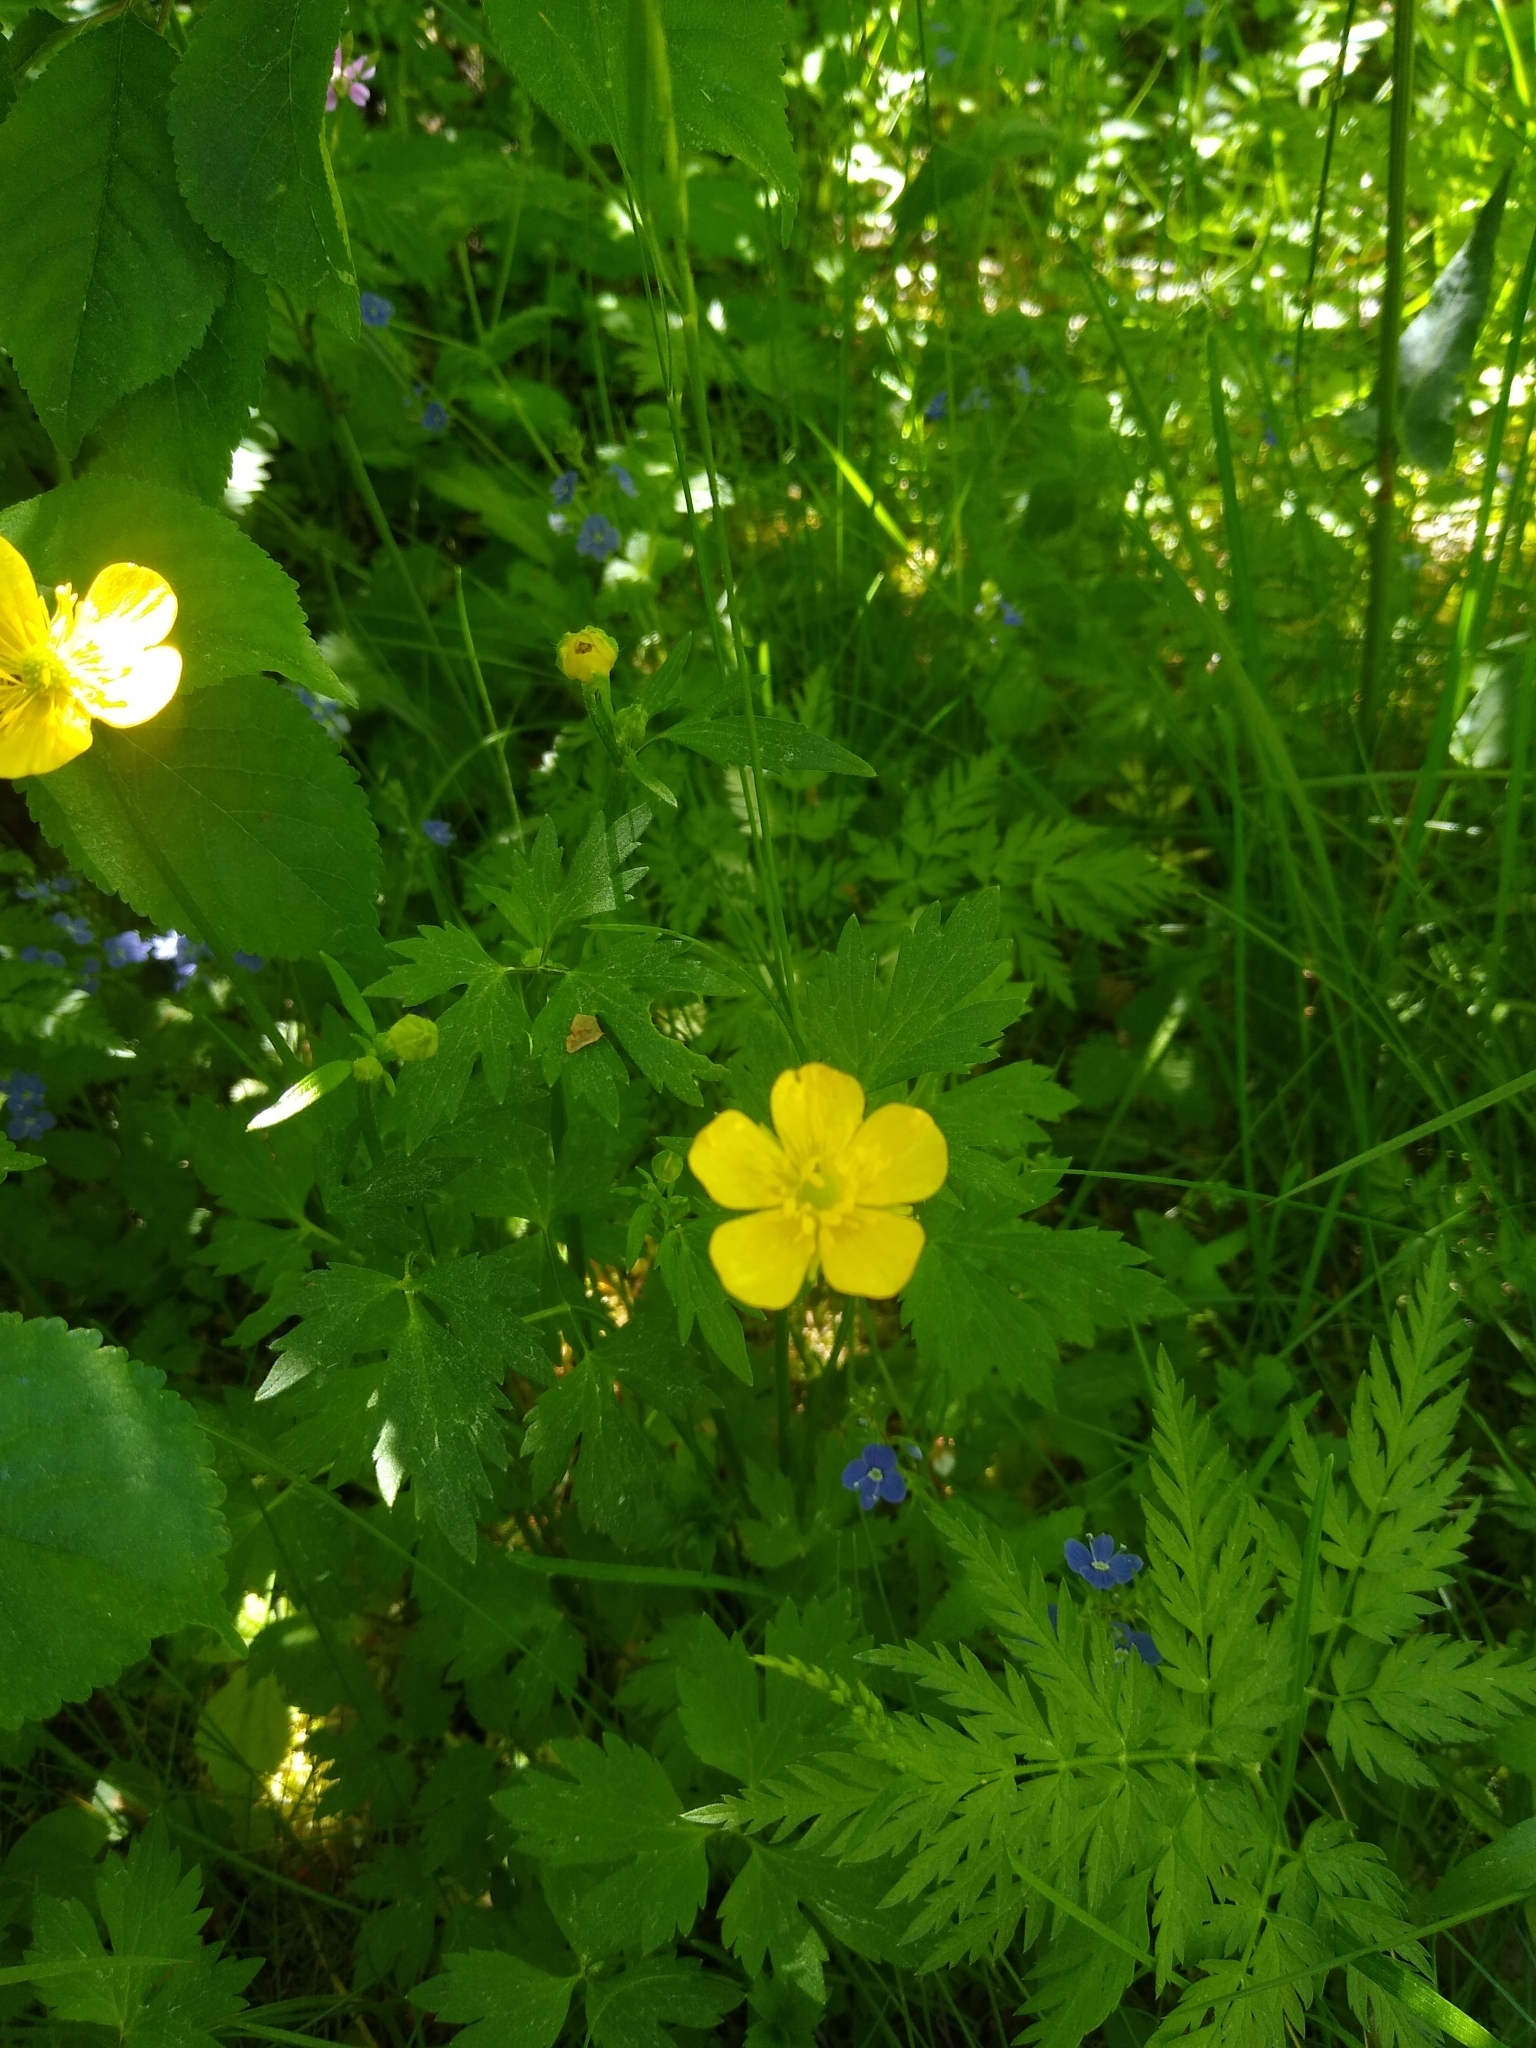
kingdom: Plantae
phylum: Tracheophyta
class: Magnoliopsida
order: Ranunculales
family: Ranunculaceae
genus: Ranunculus
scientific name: Ranunculus repens
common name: Creeping buttercup
